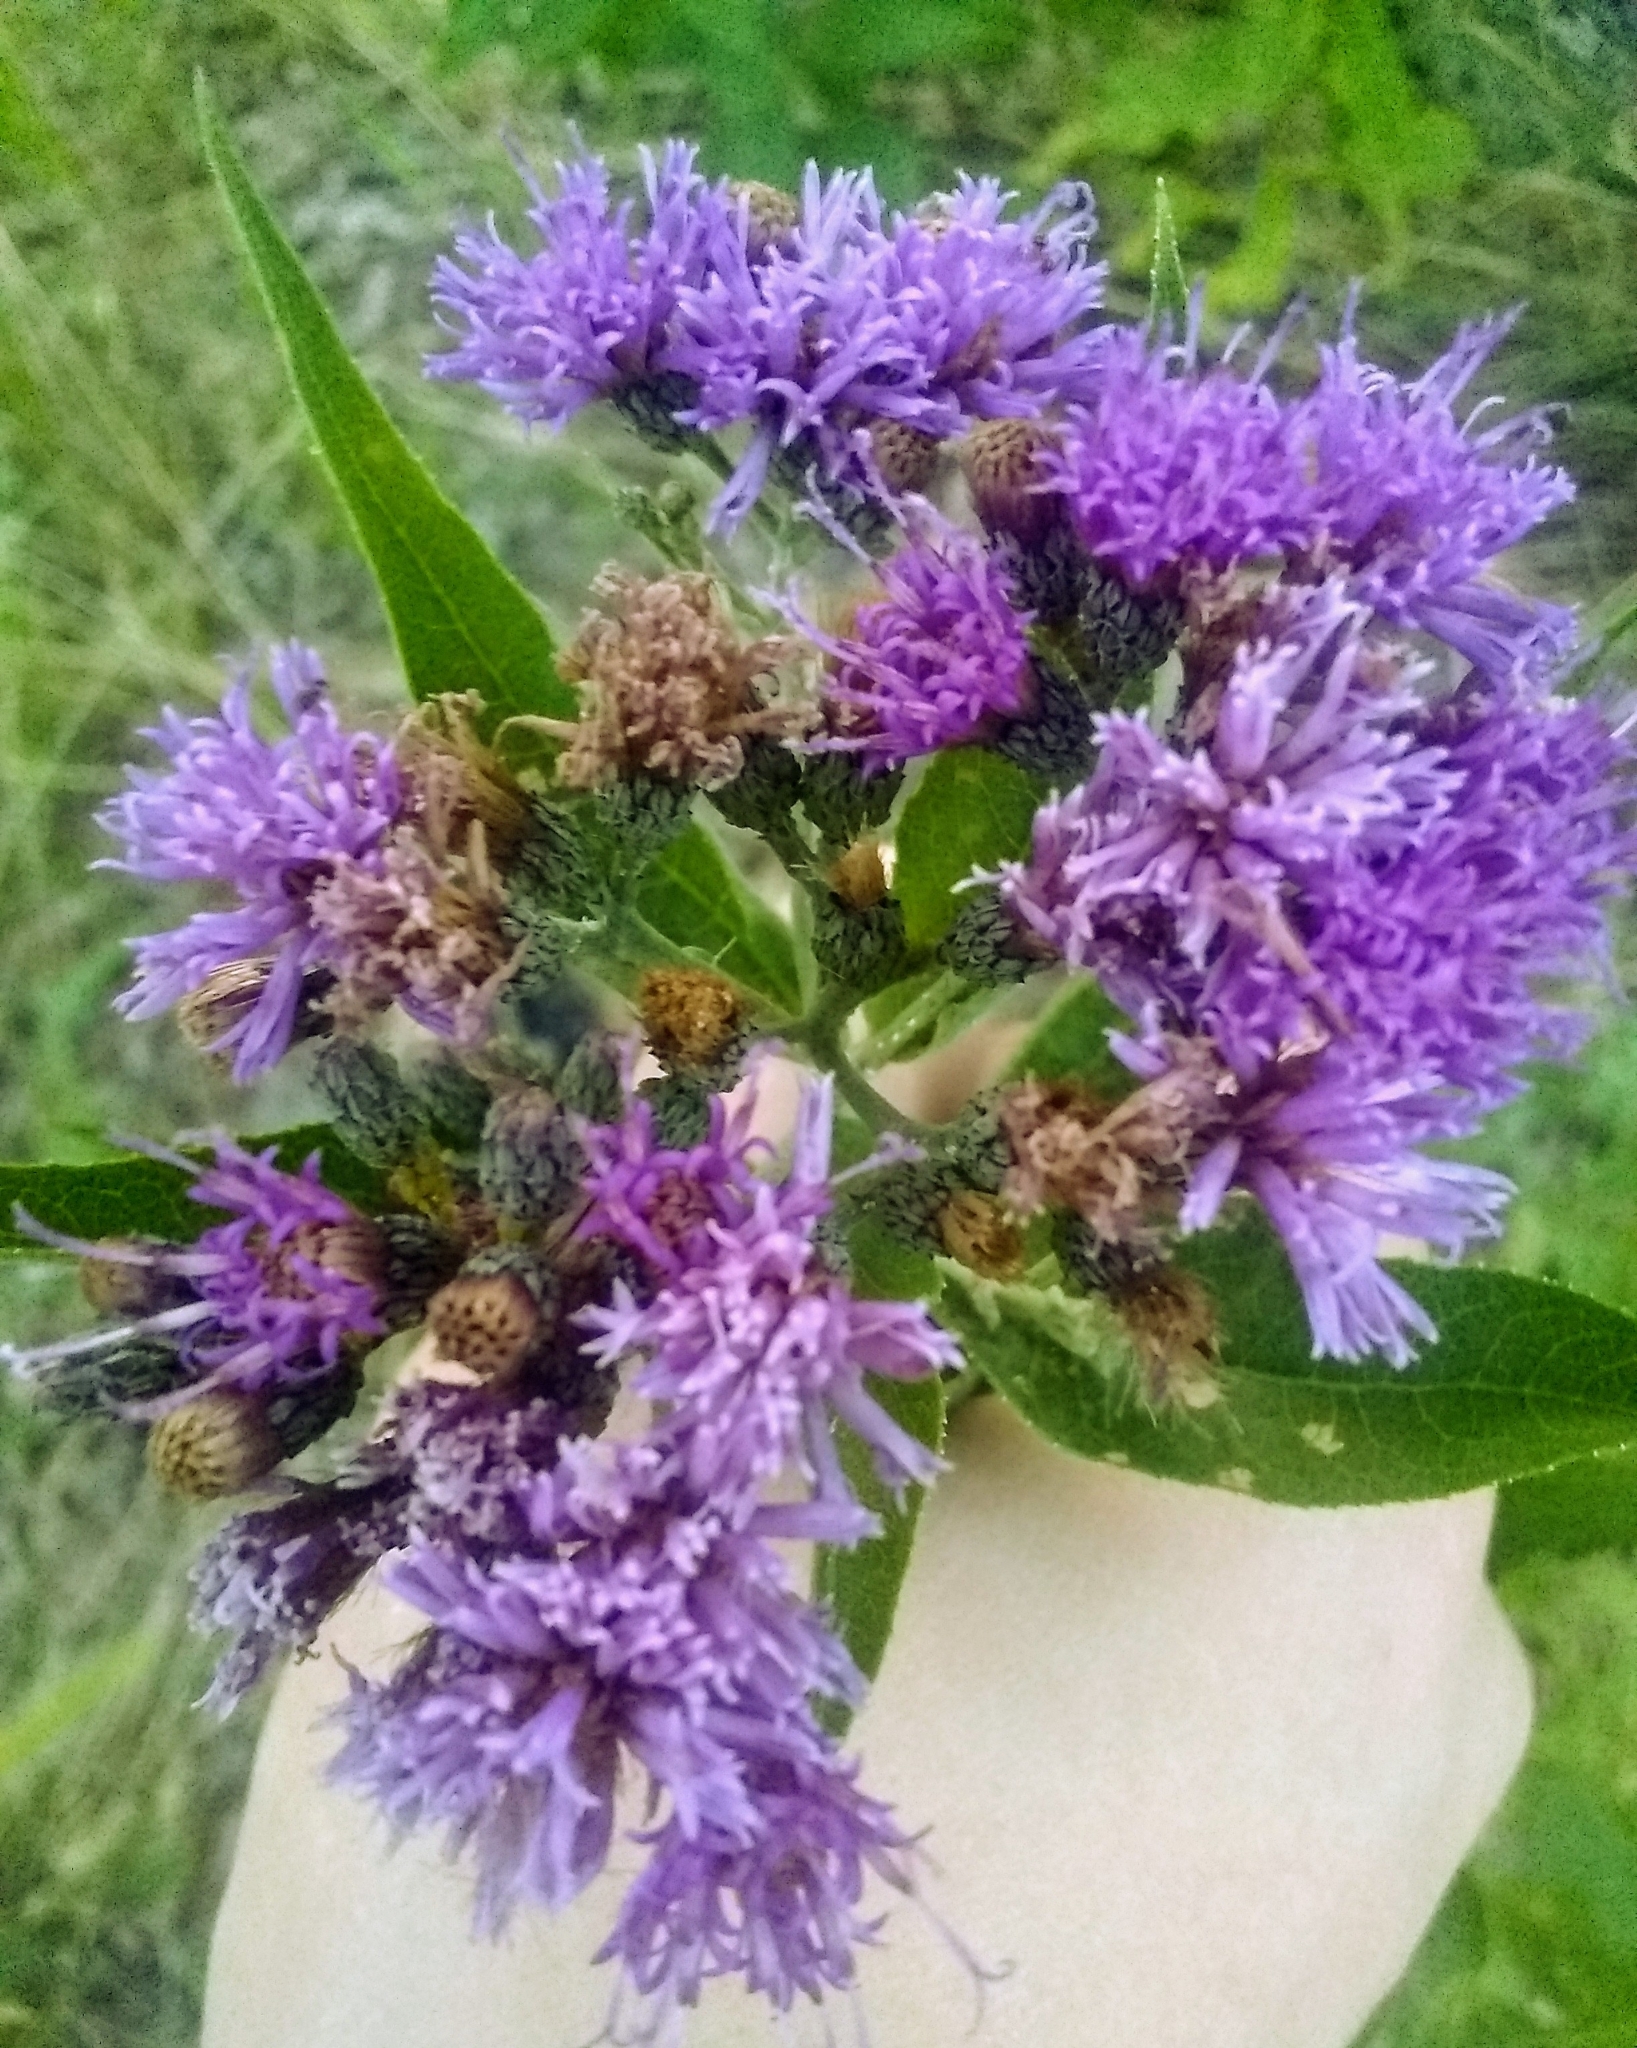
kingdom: Plantae
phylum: Tracheophyta
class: Magnoliopsida
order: Asterales
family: Asteraceae
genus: Vernonia
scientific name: Vernonia baldwinii
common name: Western ironweed
